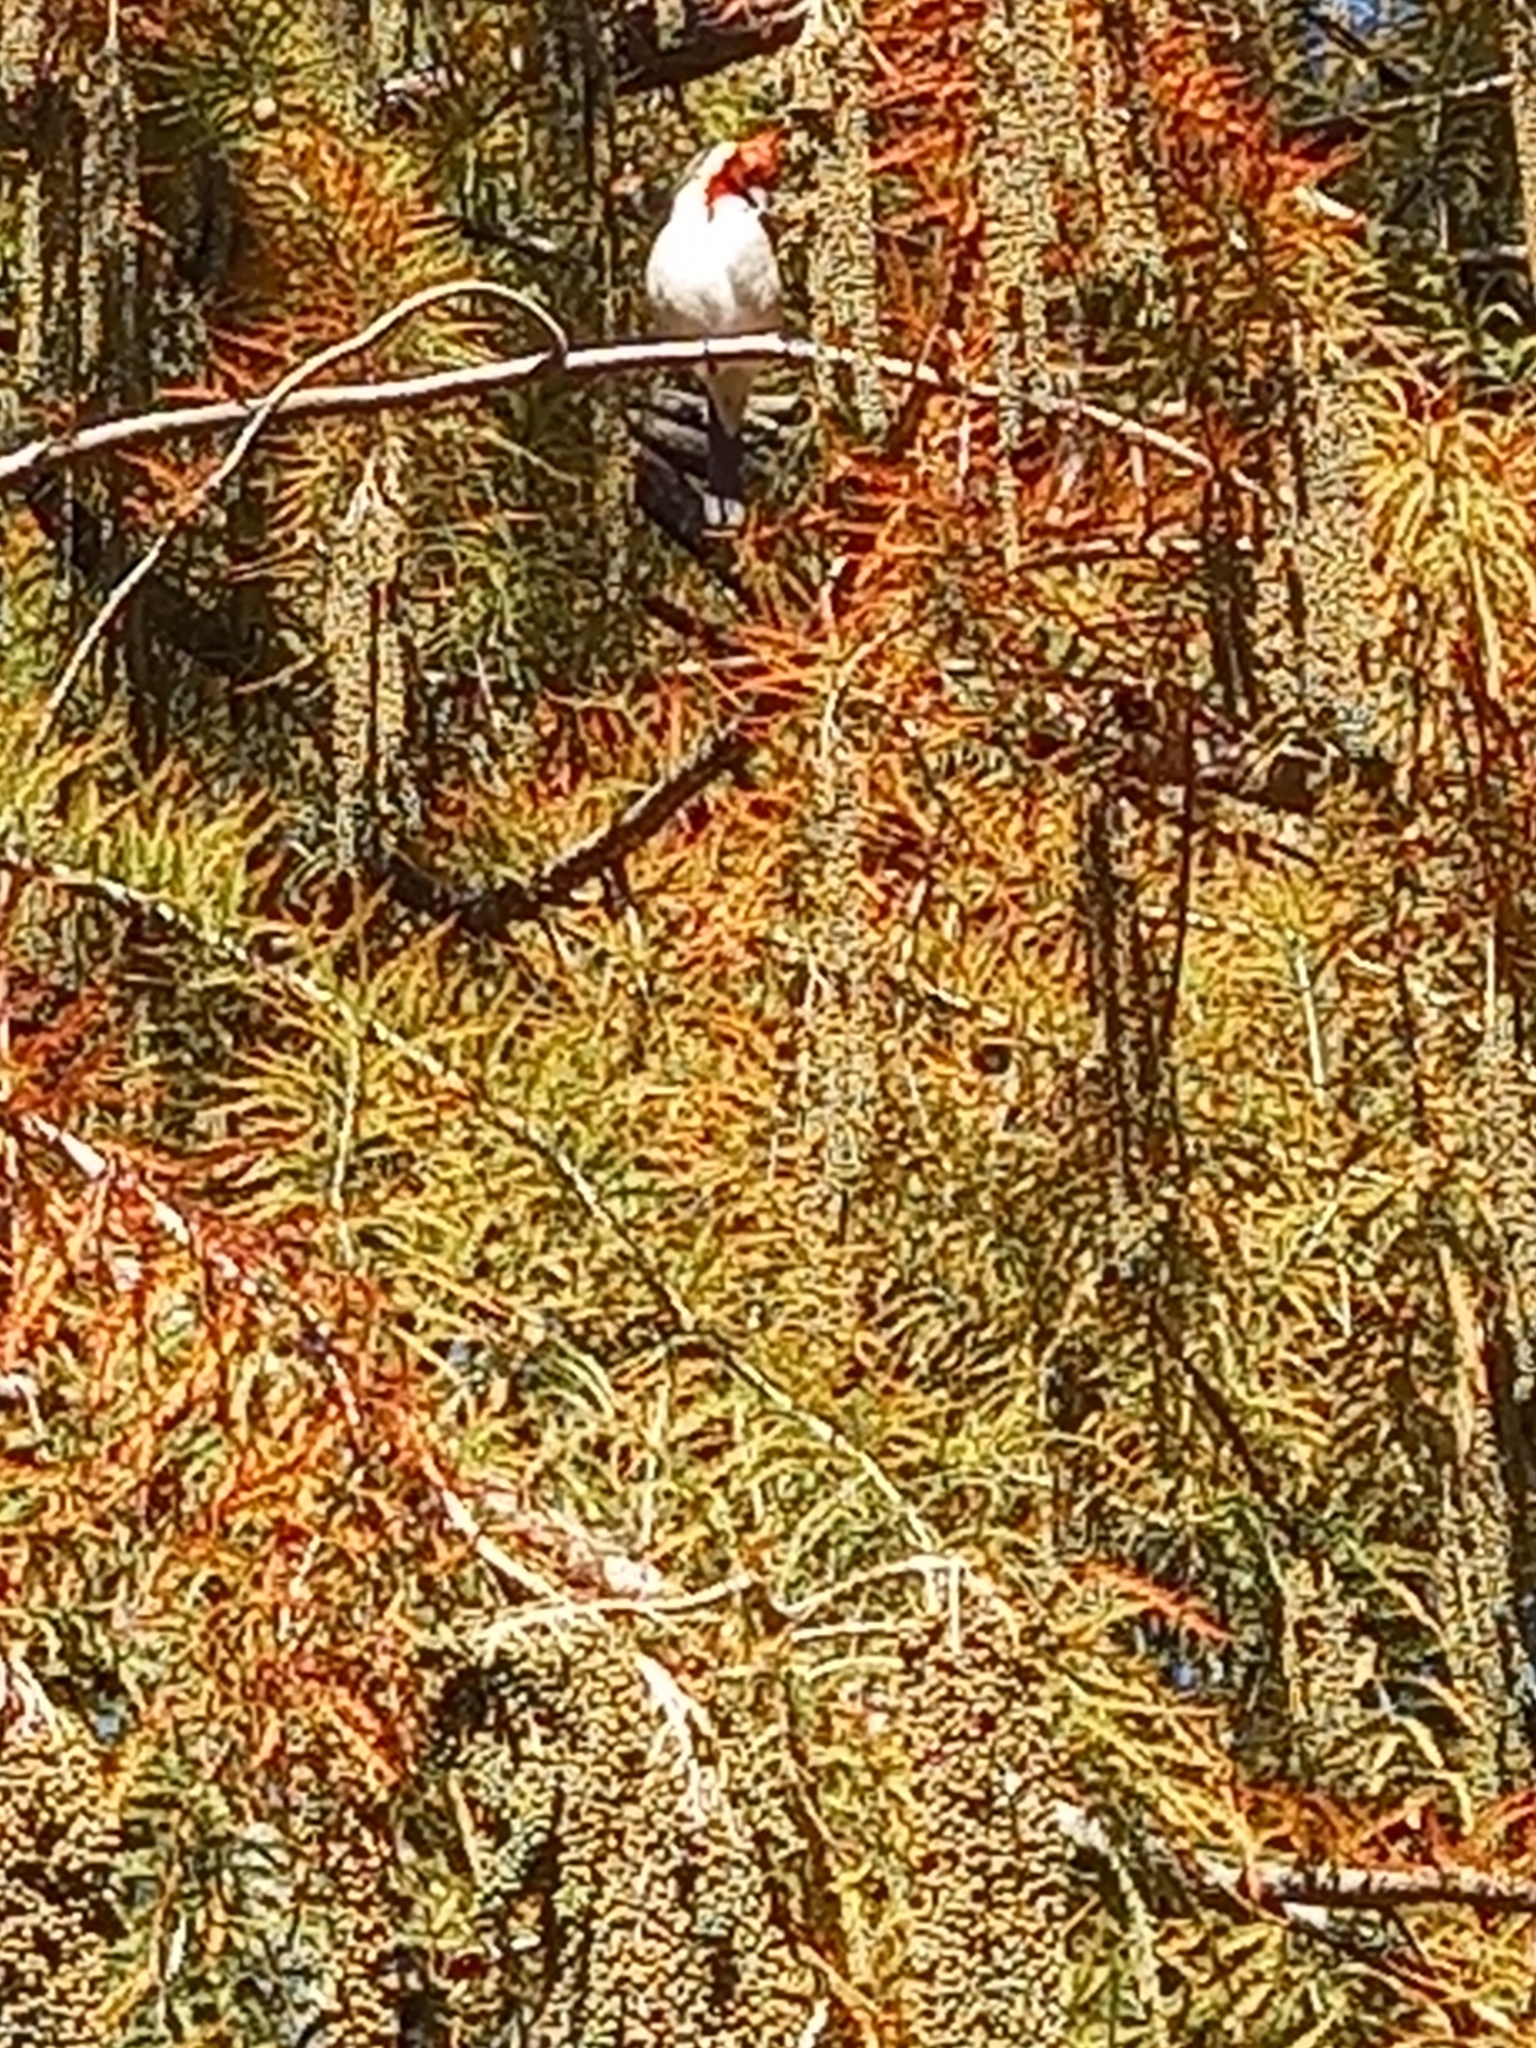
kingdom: Animalia
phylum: Chordata
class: Aves
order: Passeriformes
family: Thraupidae
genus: Paroaria
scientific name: Paroaria coronata
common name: Red-crested cardinal
